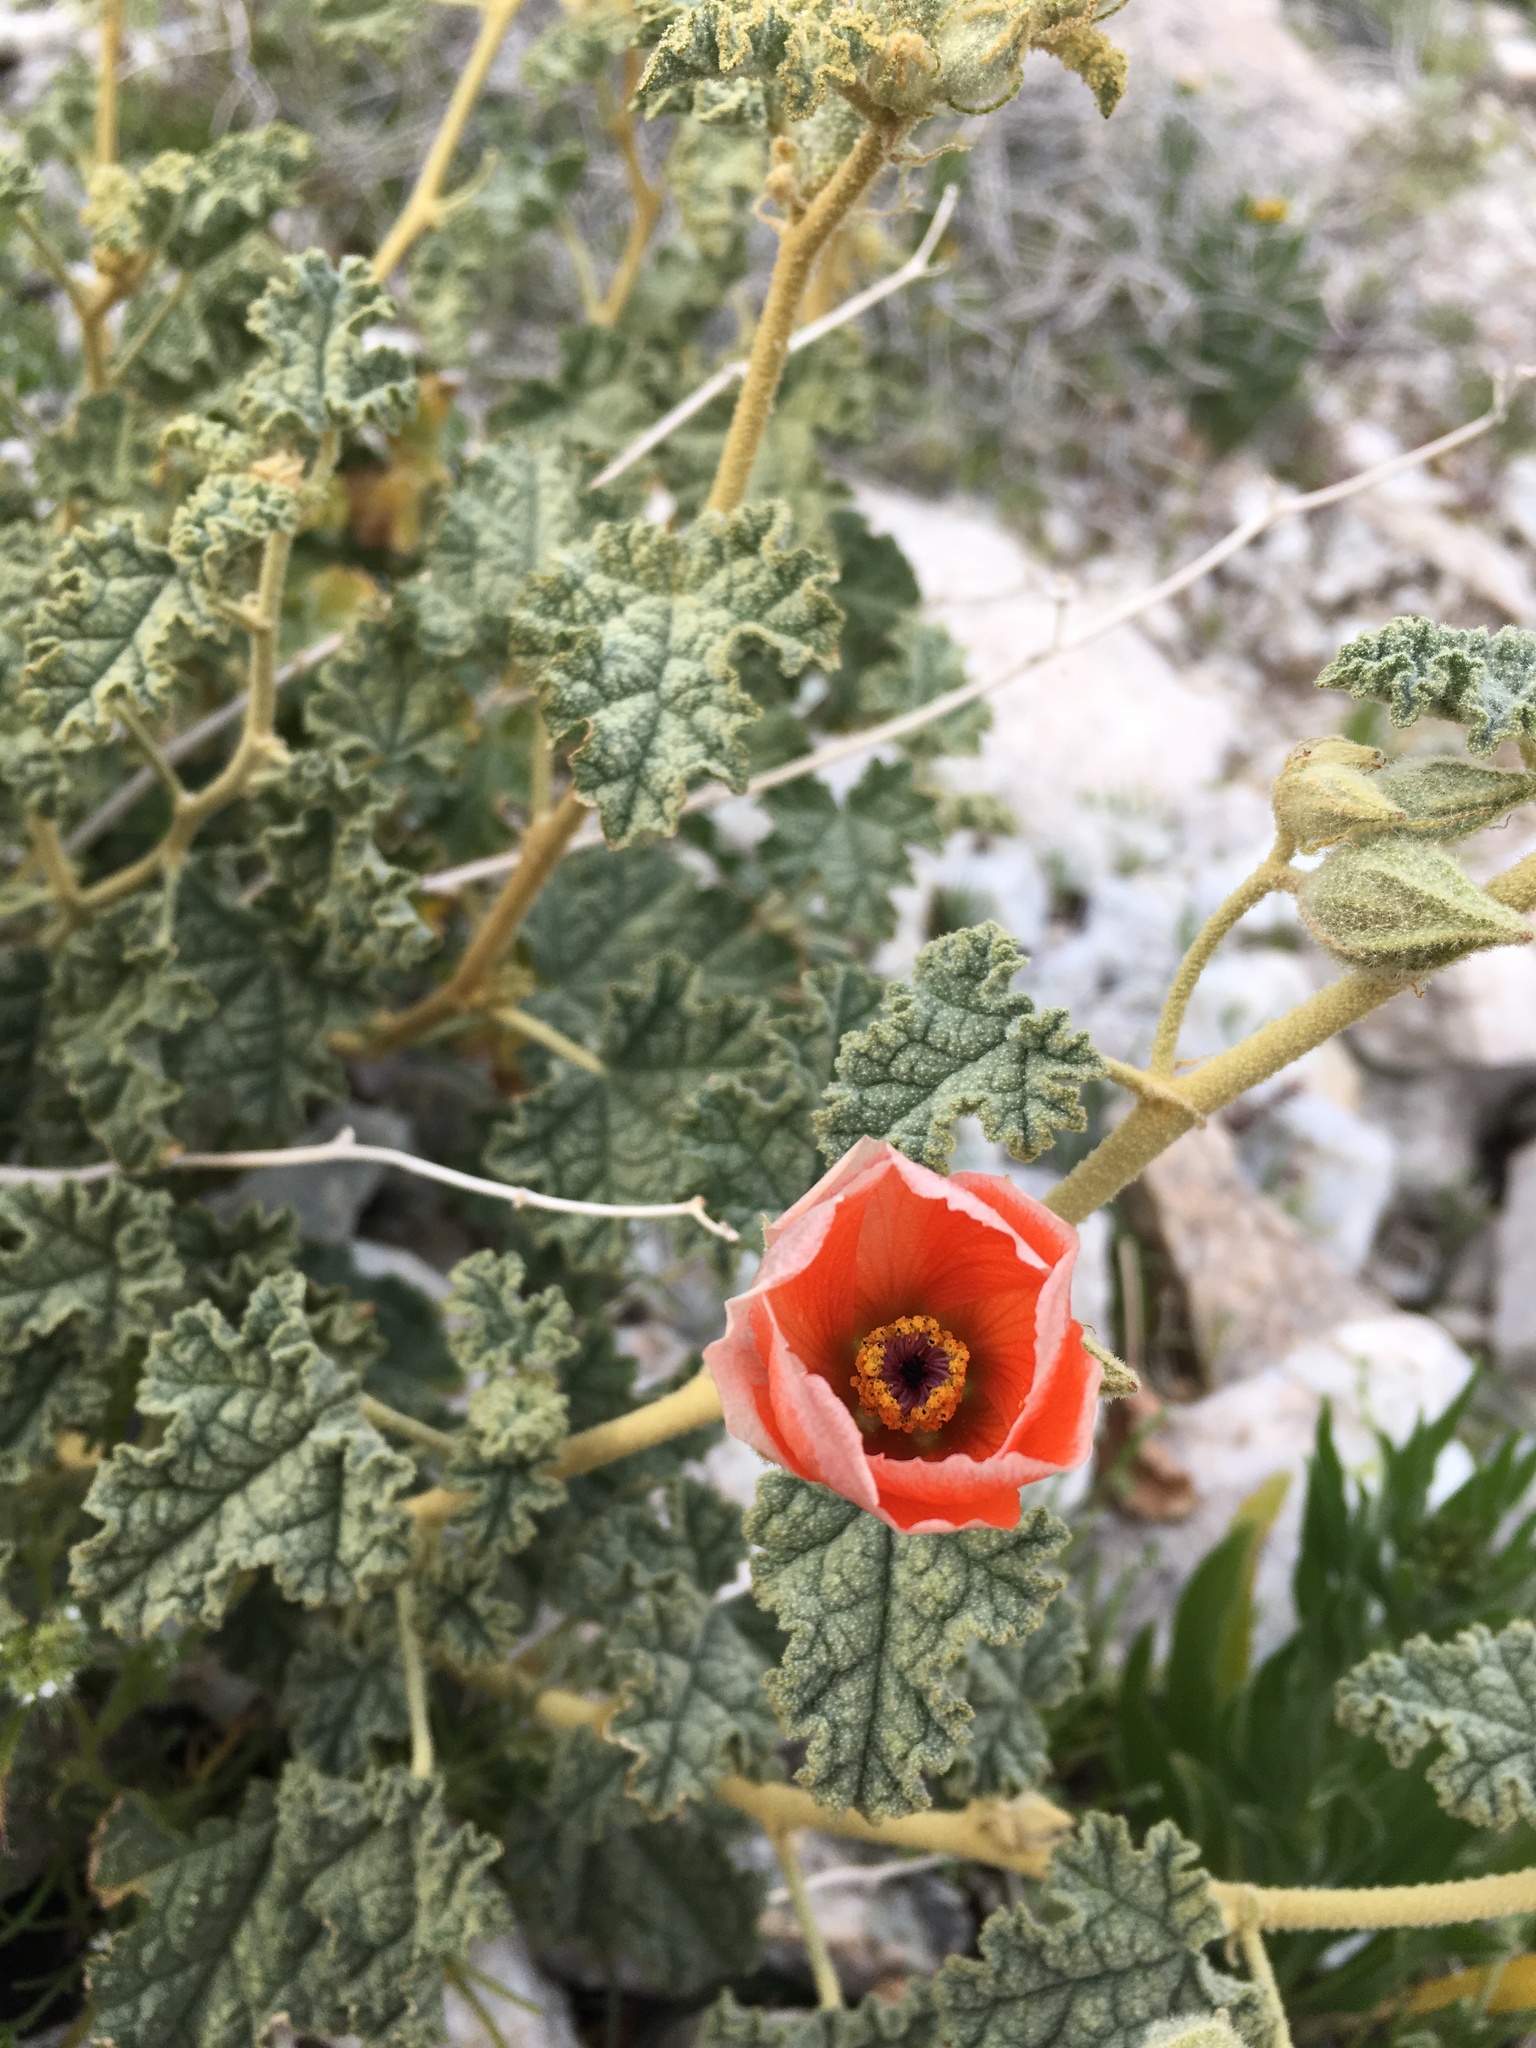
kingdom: Plantae
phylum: Tracheophyta
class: Magnoliopsida
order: Malvales
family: Malvaceae
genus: Sphaeralcea
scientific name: Sphaeralcea ambigua
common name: Apricot globe-mallow
